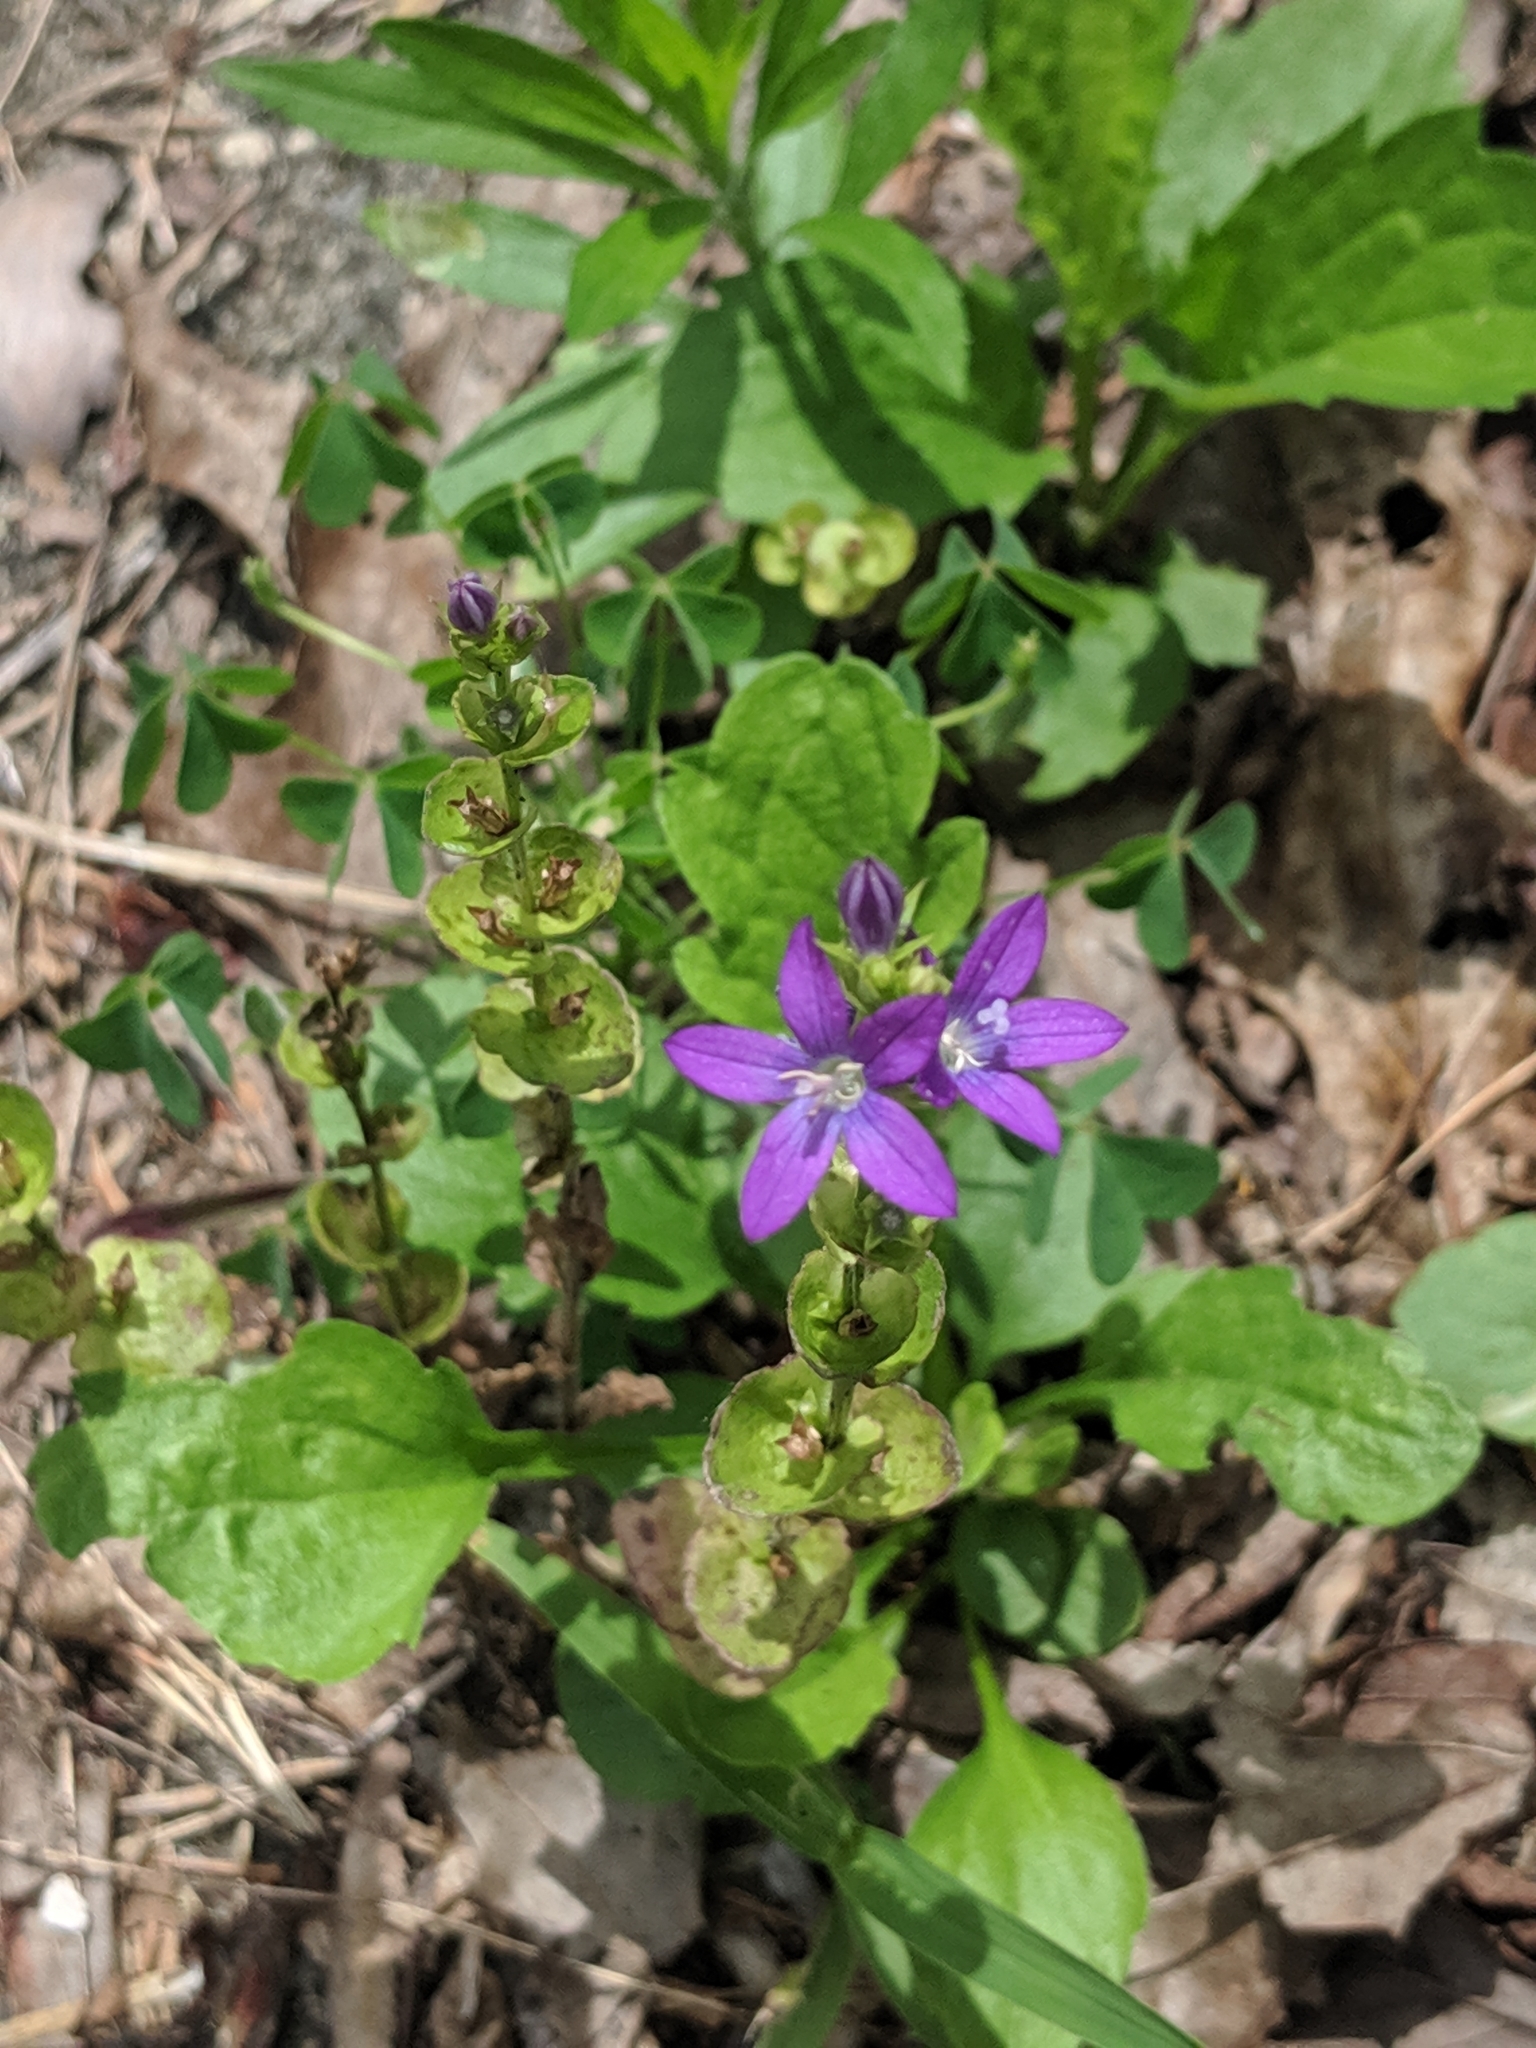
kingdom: Plantae
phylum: Tracheophyta
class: Magnoliopsida
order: Asterales
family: Campanulaceae
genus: Triodanis
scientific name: Triodanis perfoliata
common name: Clasping venus' looking-glass
